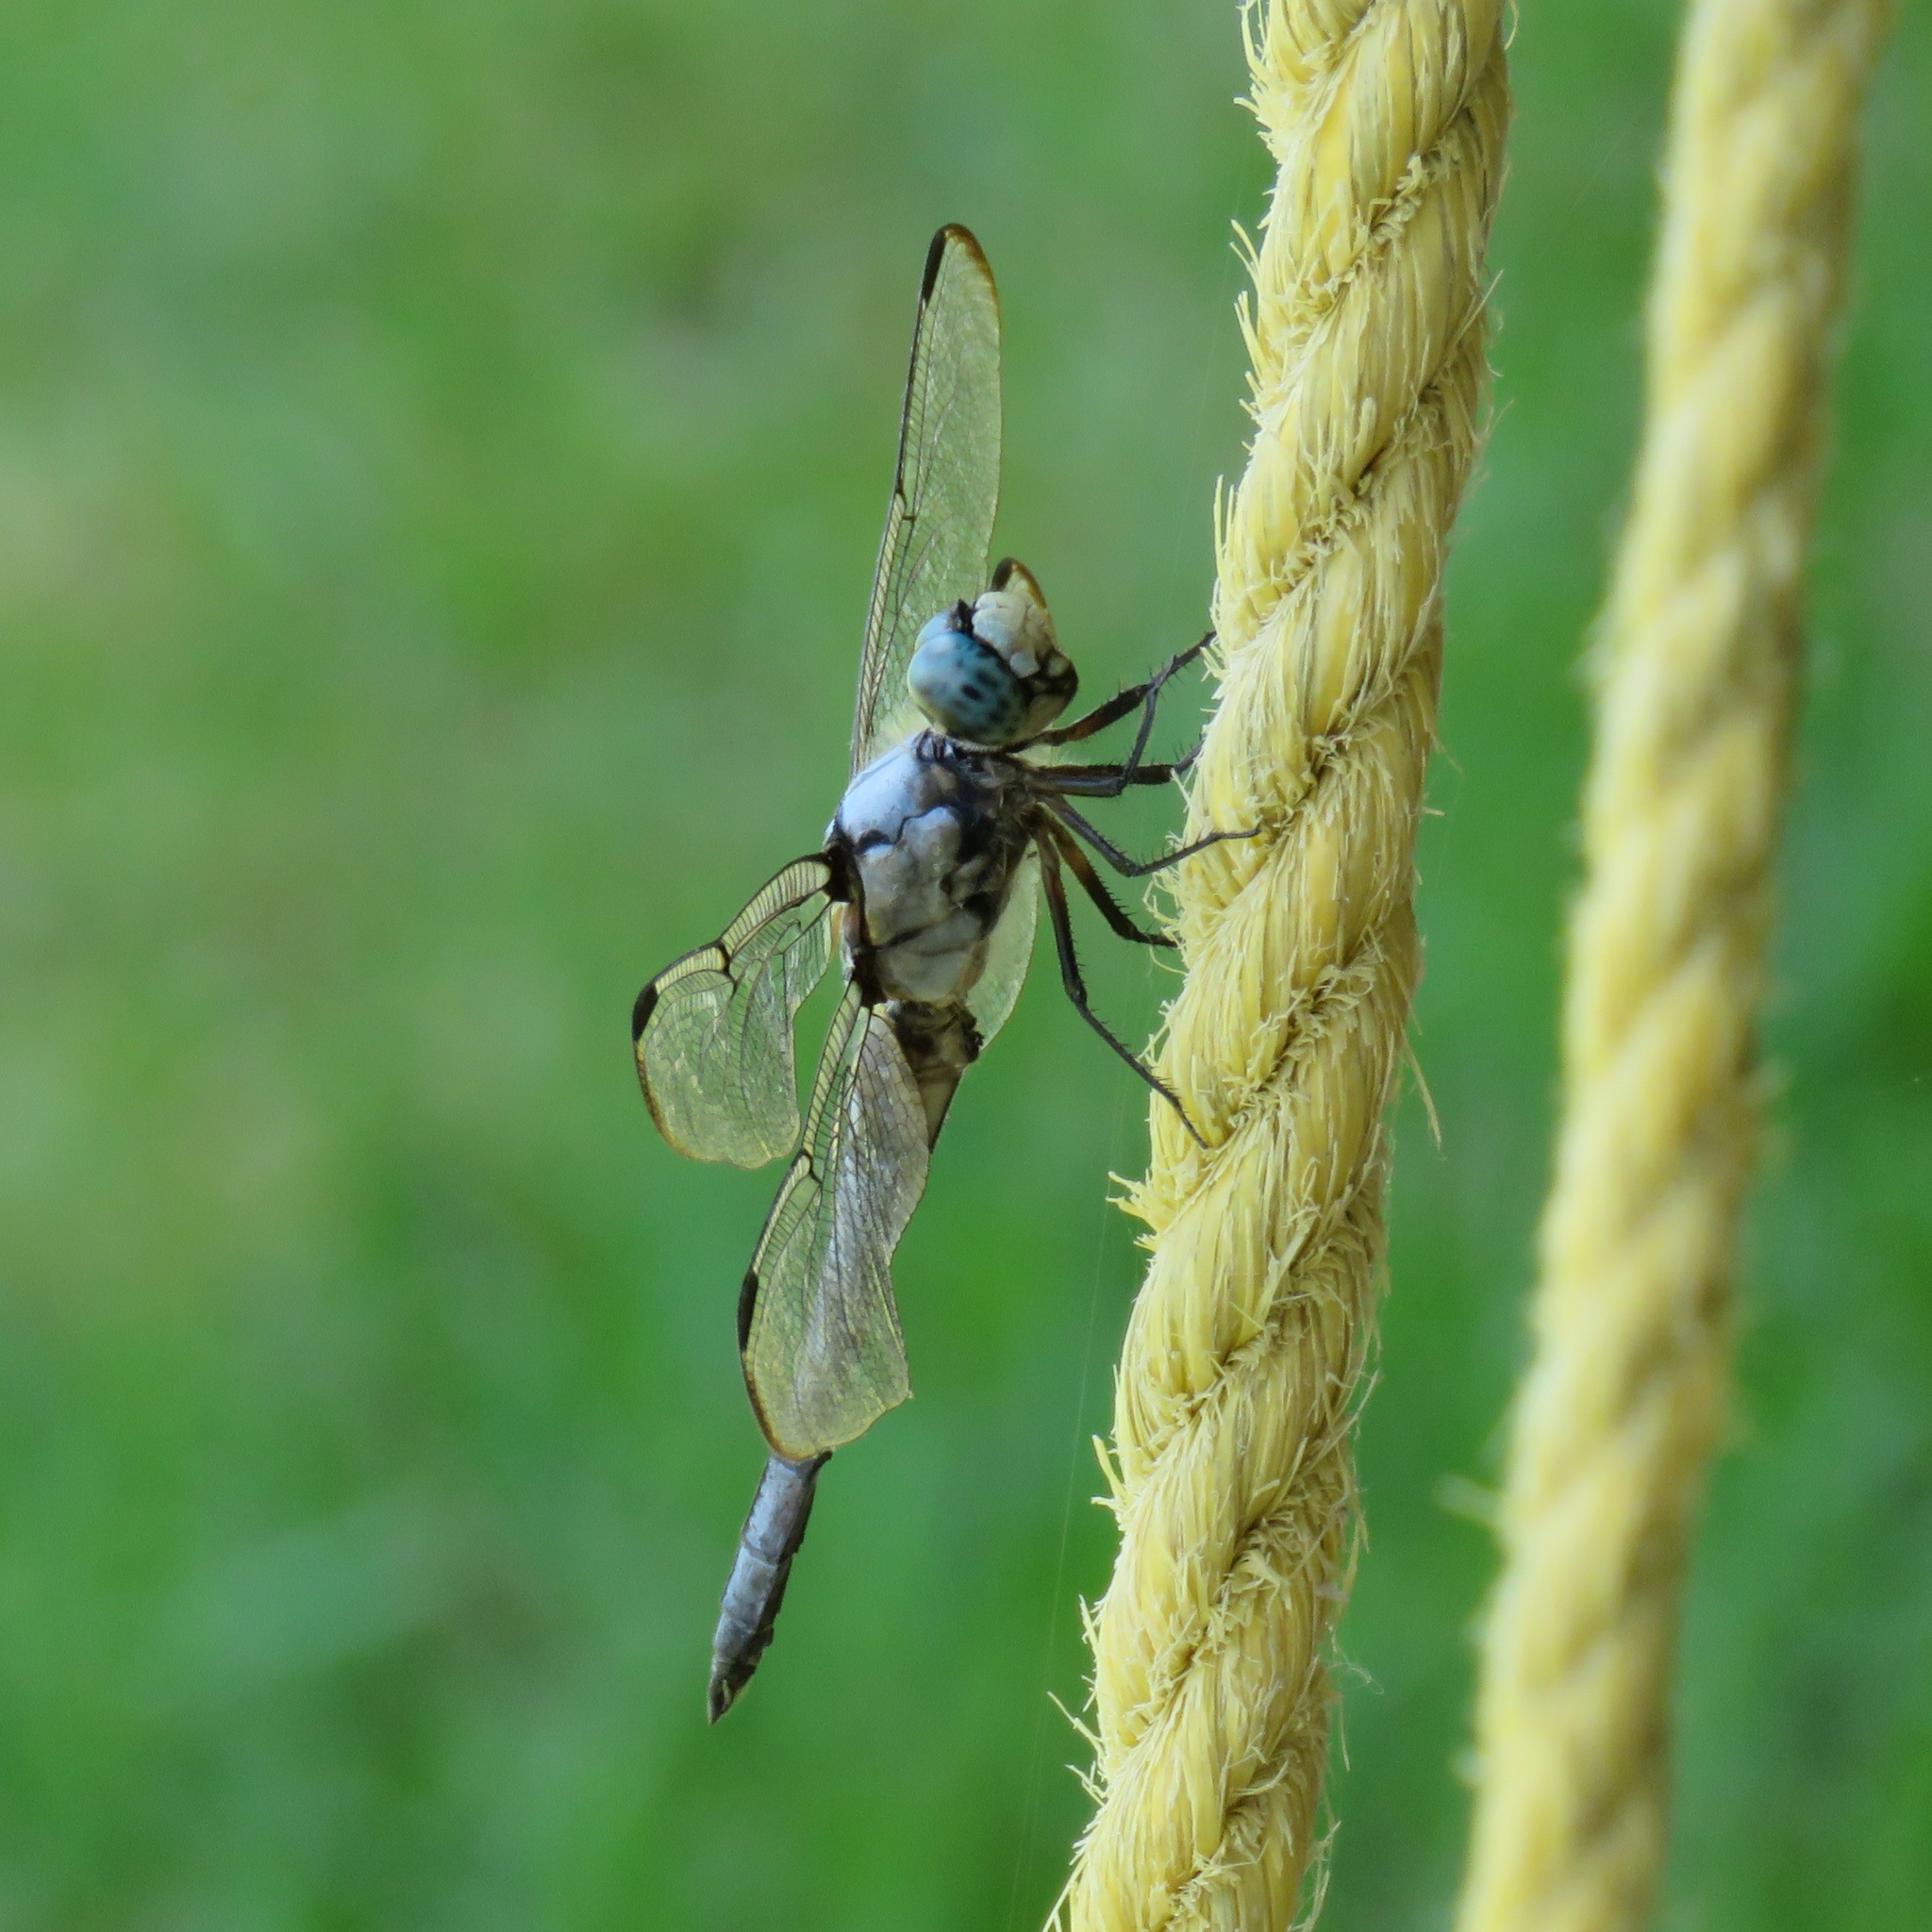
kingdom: Animalia
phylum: Arthropoda
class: Insecta
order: Odonata
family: Libellulidae
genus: Libellula
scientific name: Libellula vibrans
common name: Great blue skimmer
